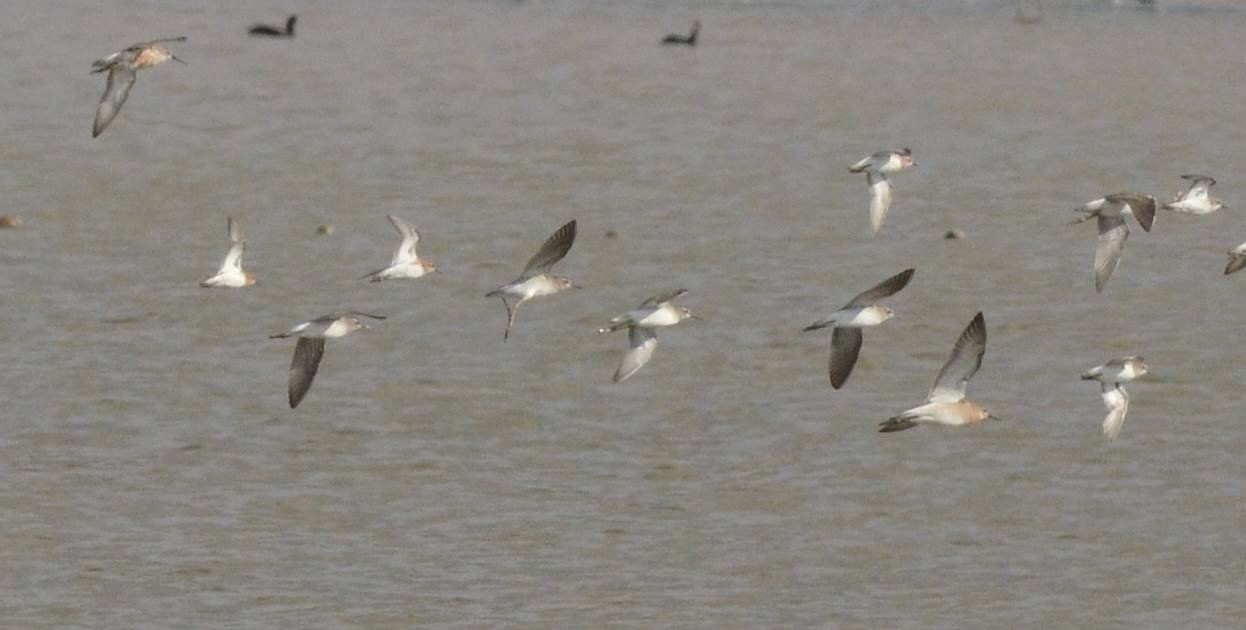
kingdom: Animalia
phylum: Chordata
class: Aves
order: Charadriiformes
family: Scolopacidae
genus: Calidris
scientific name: Calidris ferruginea
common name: Curlew sandpiper
